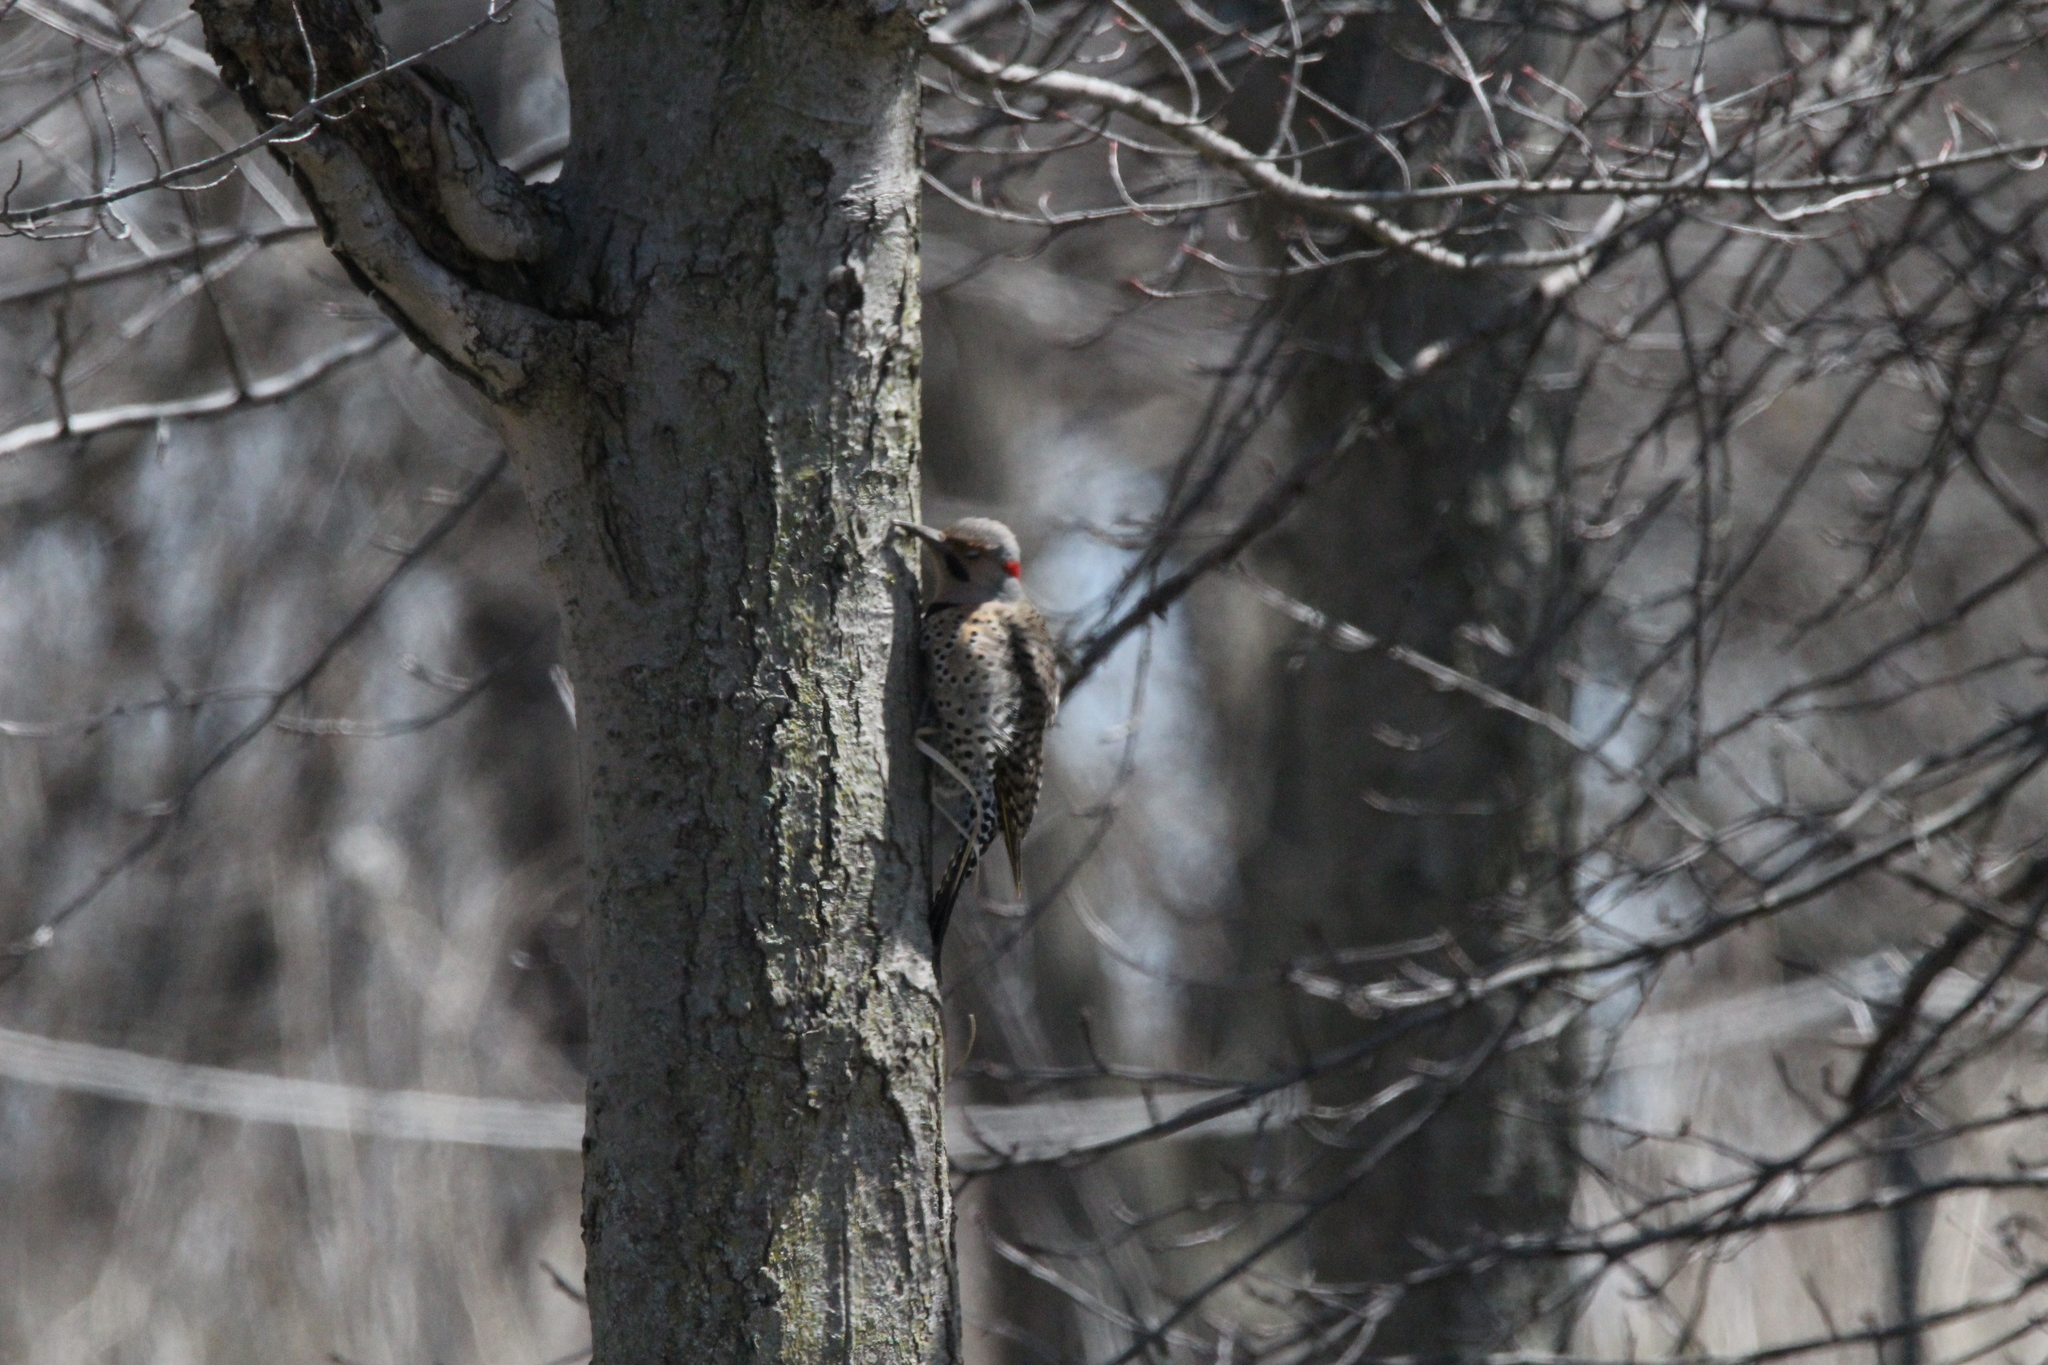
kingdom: Animalia
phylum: Chordata
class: Aves
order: Piciformes
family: Picidae
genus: Colaptes
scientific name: Colaptes auratus
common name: Northern flicker
